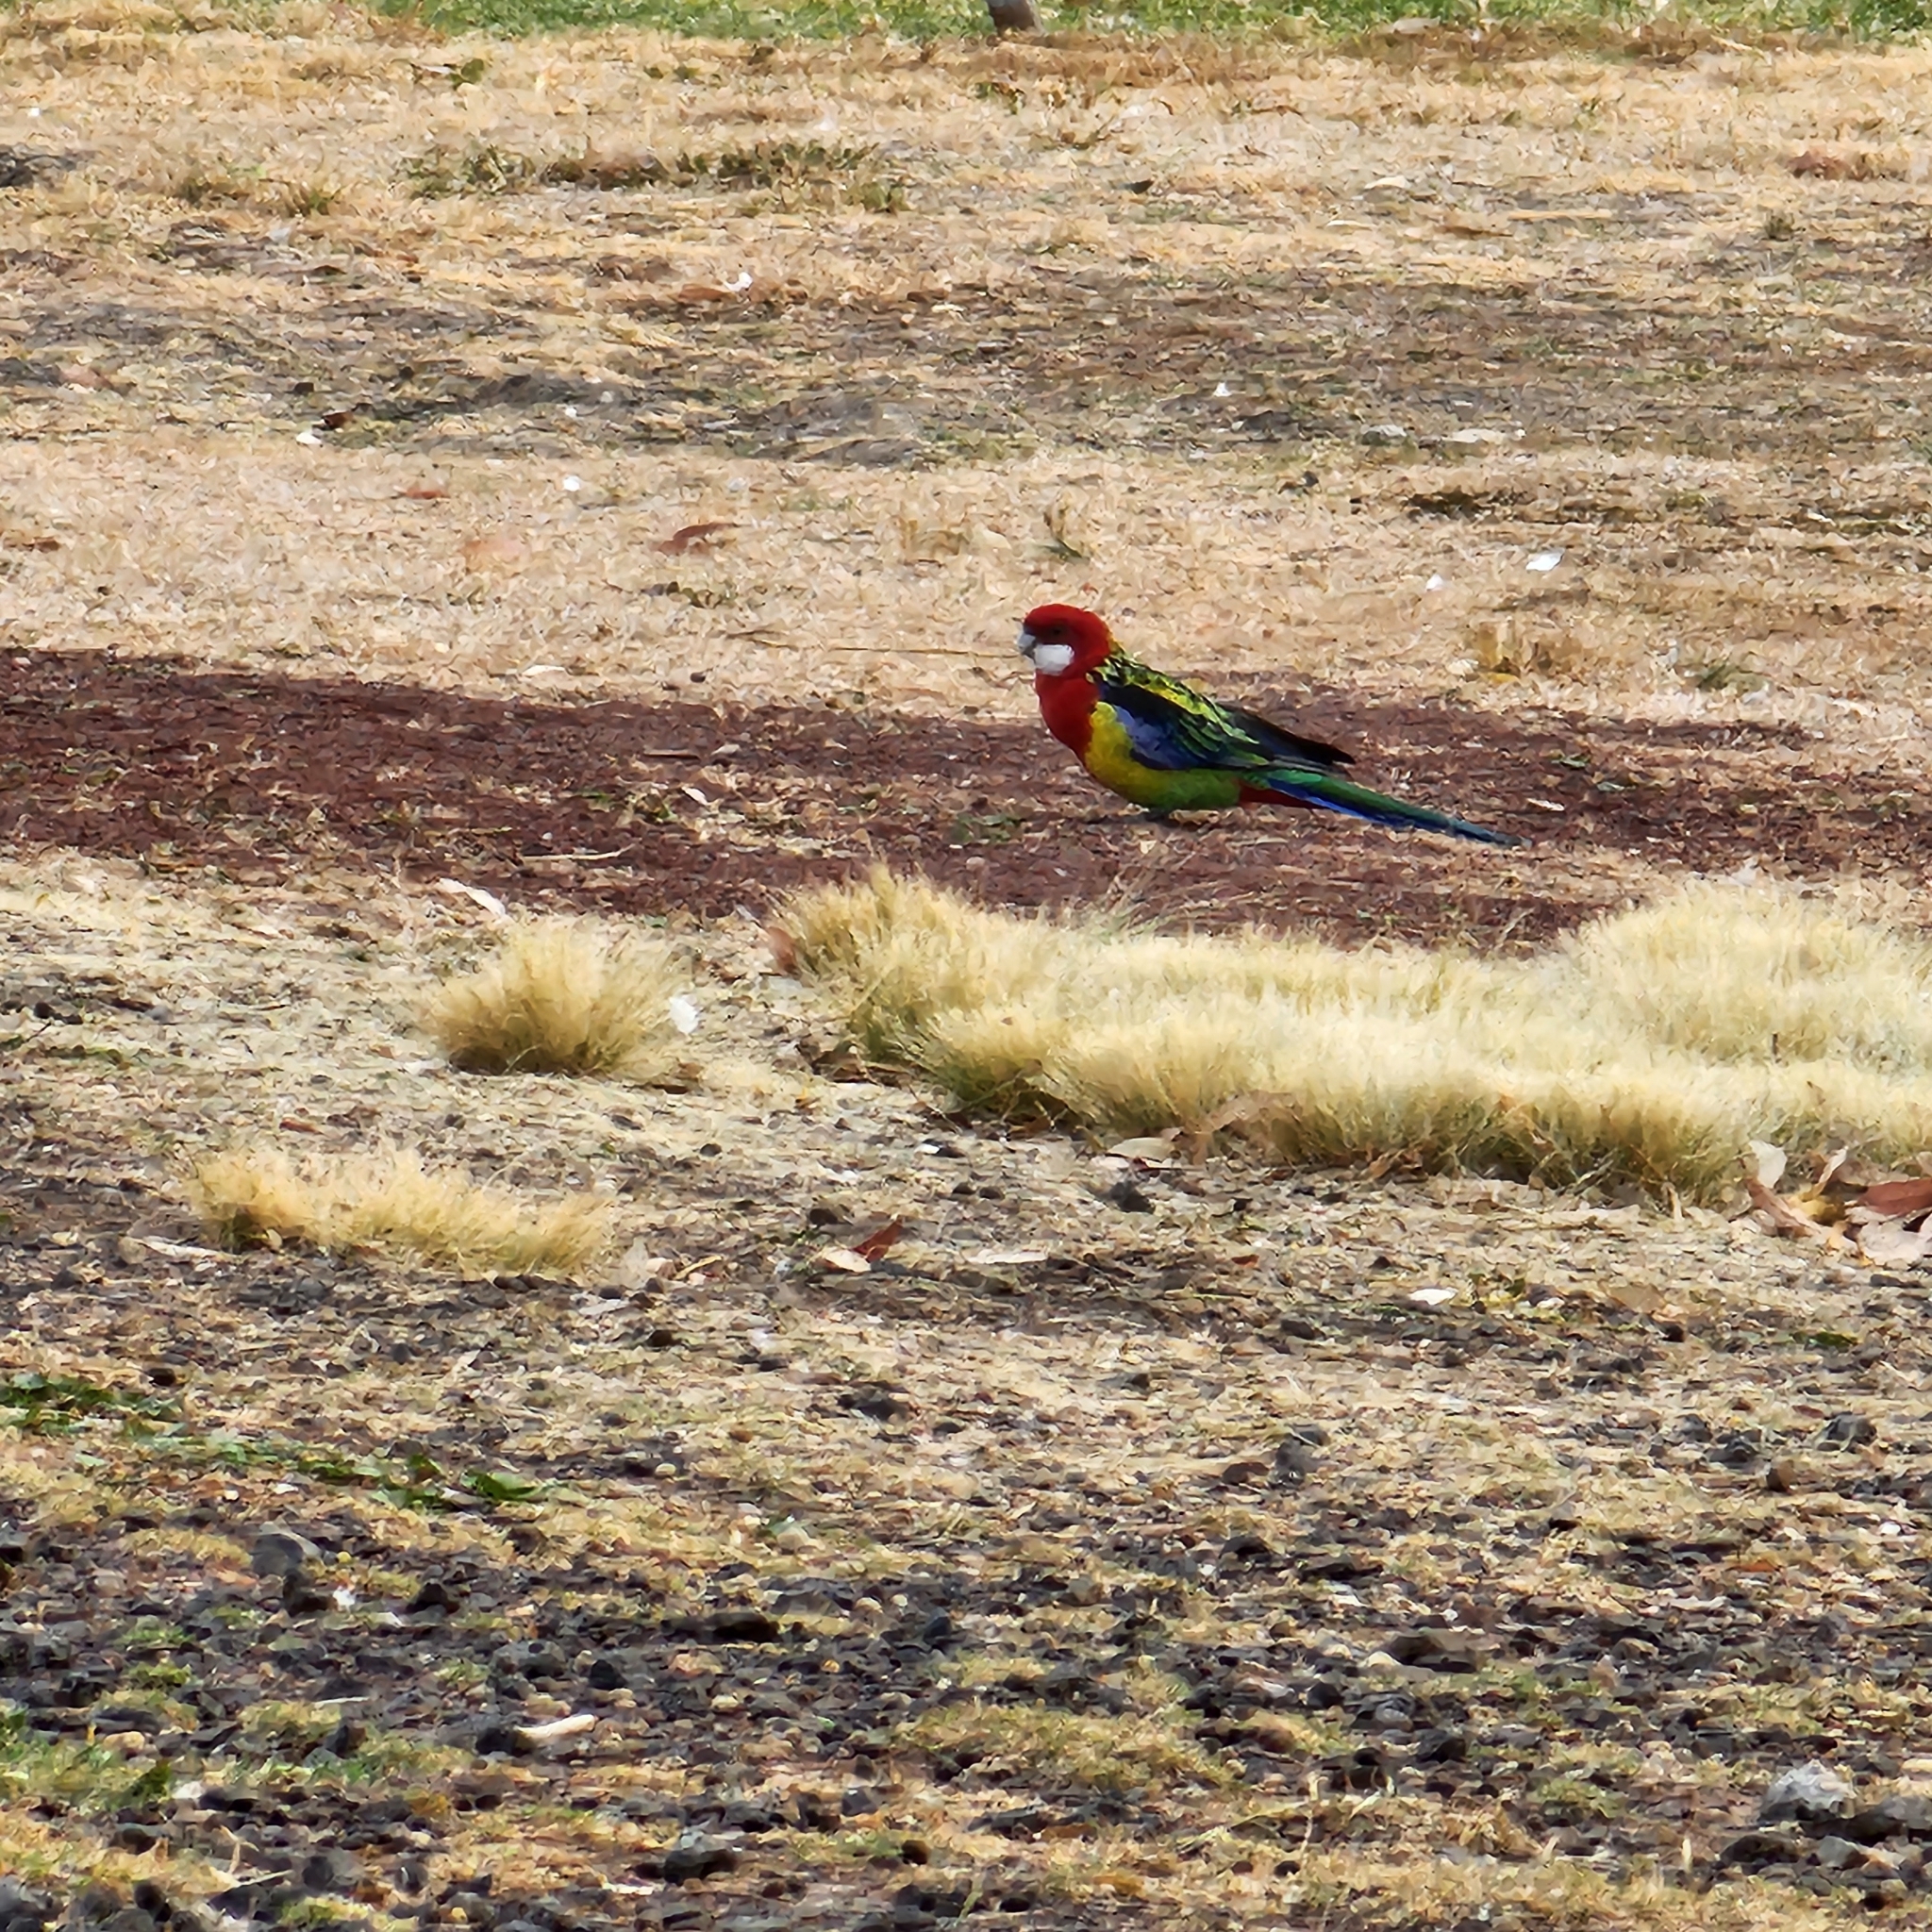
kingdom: Animalia
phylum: Chordata
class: Aves
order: Psittaciformes
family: Psittacidae
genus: Platycercus
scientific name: Platycercus eximius
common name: Eastern rosella
